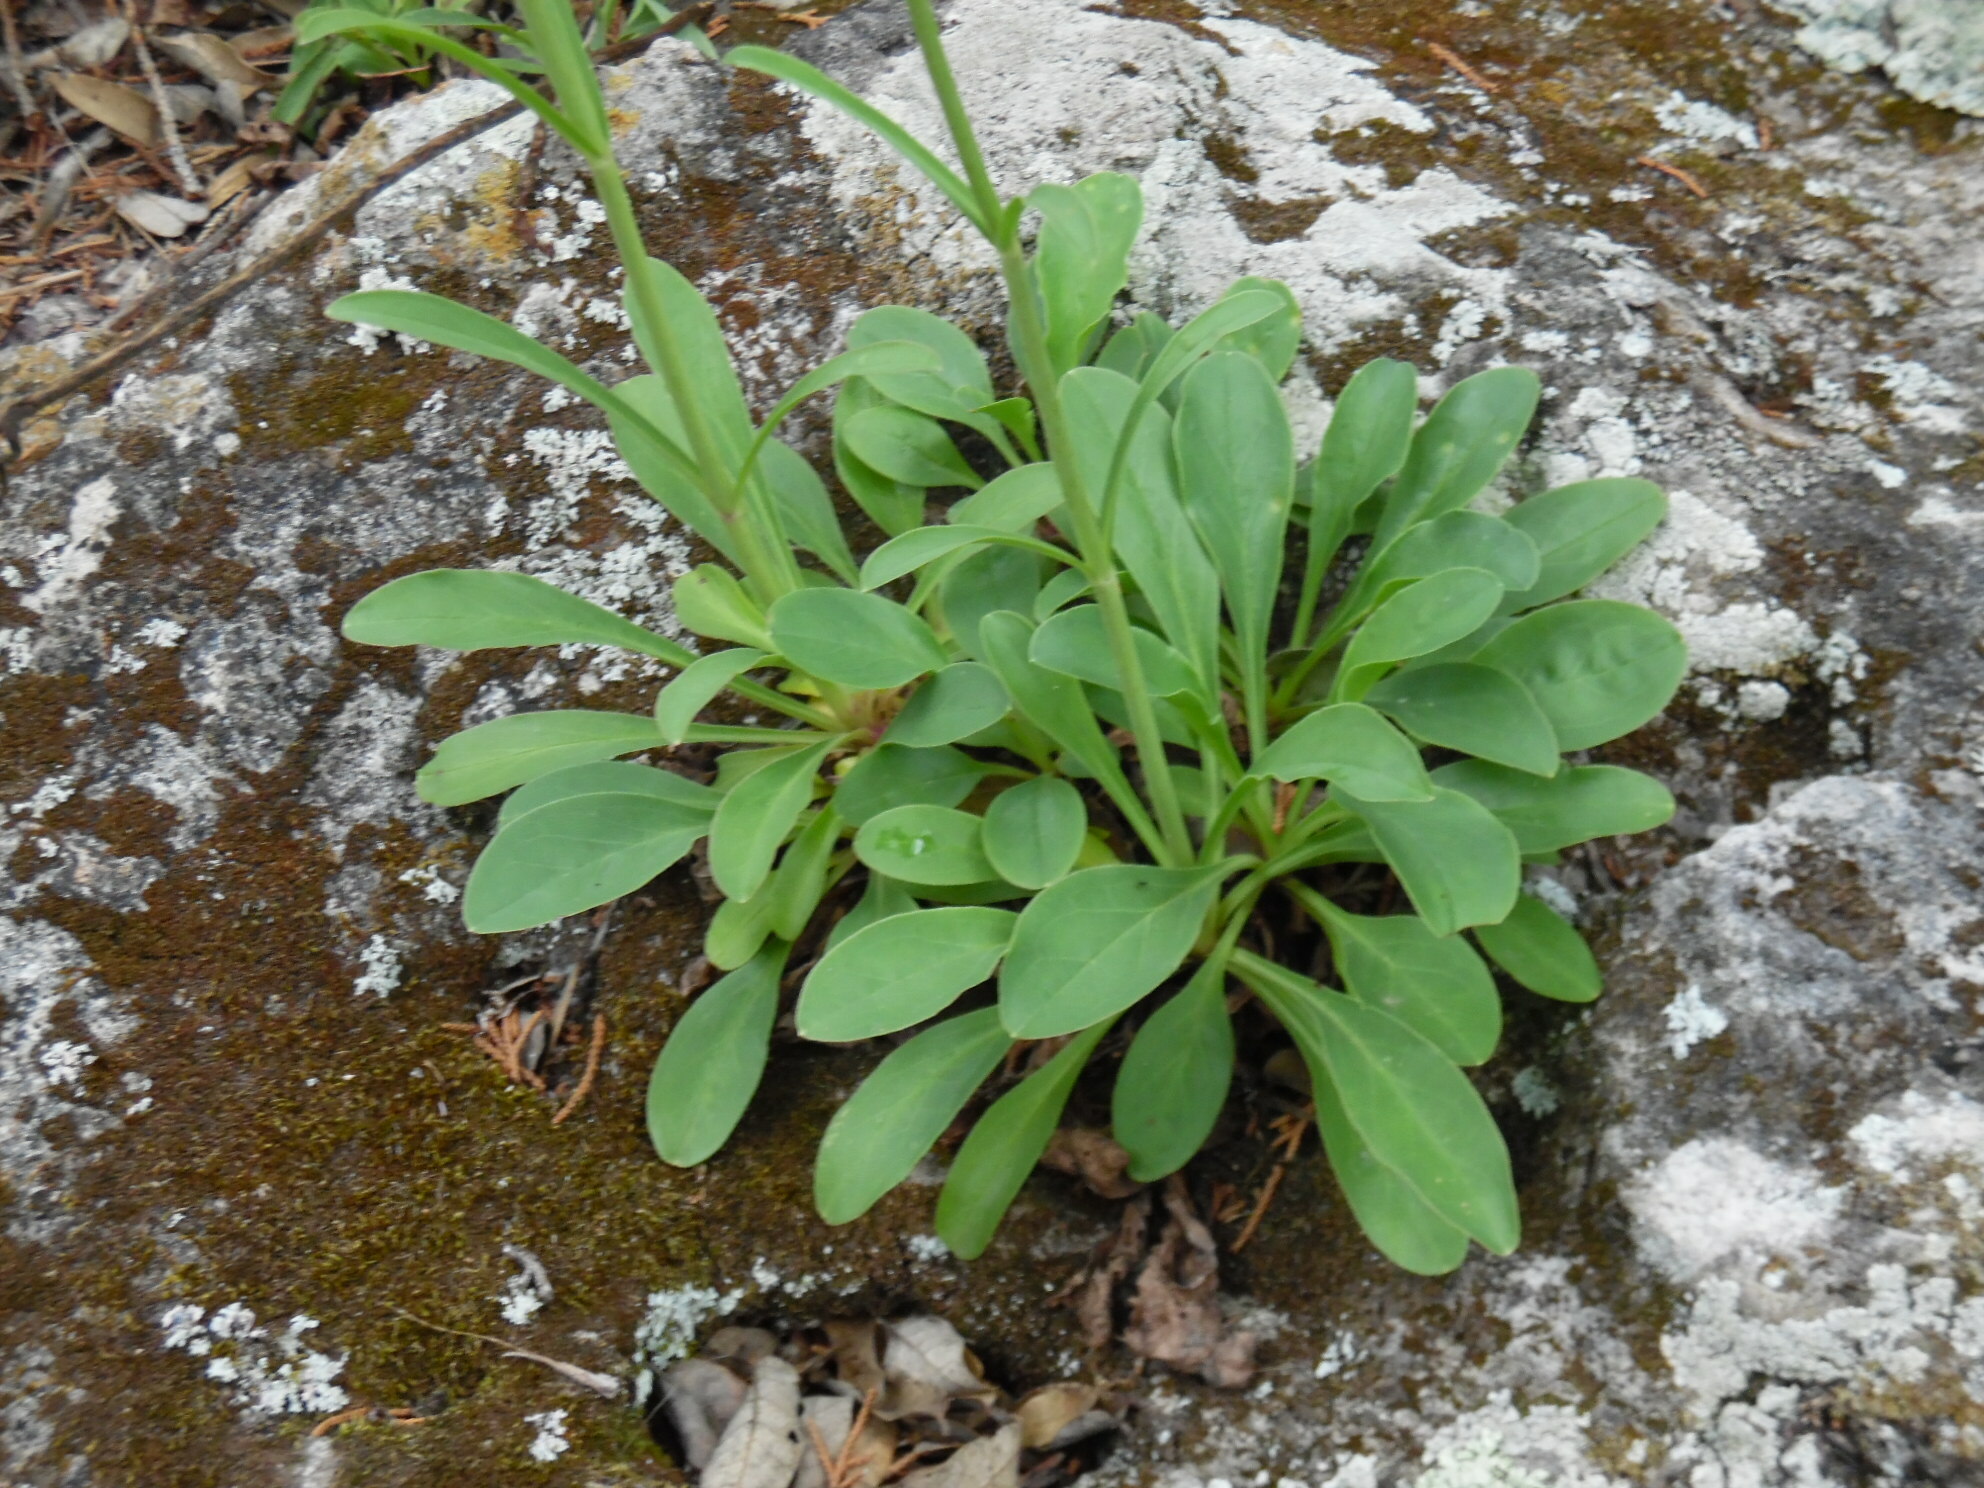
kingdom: Plantae
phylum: Tracheophyta
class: Magnoliopsida
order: Lamiales
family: Plantaginaceae
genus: Penstemon
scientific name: Penstemon barbatus
